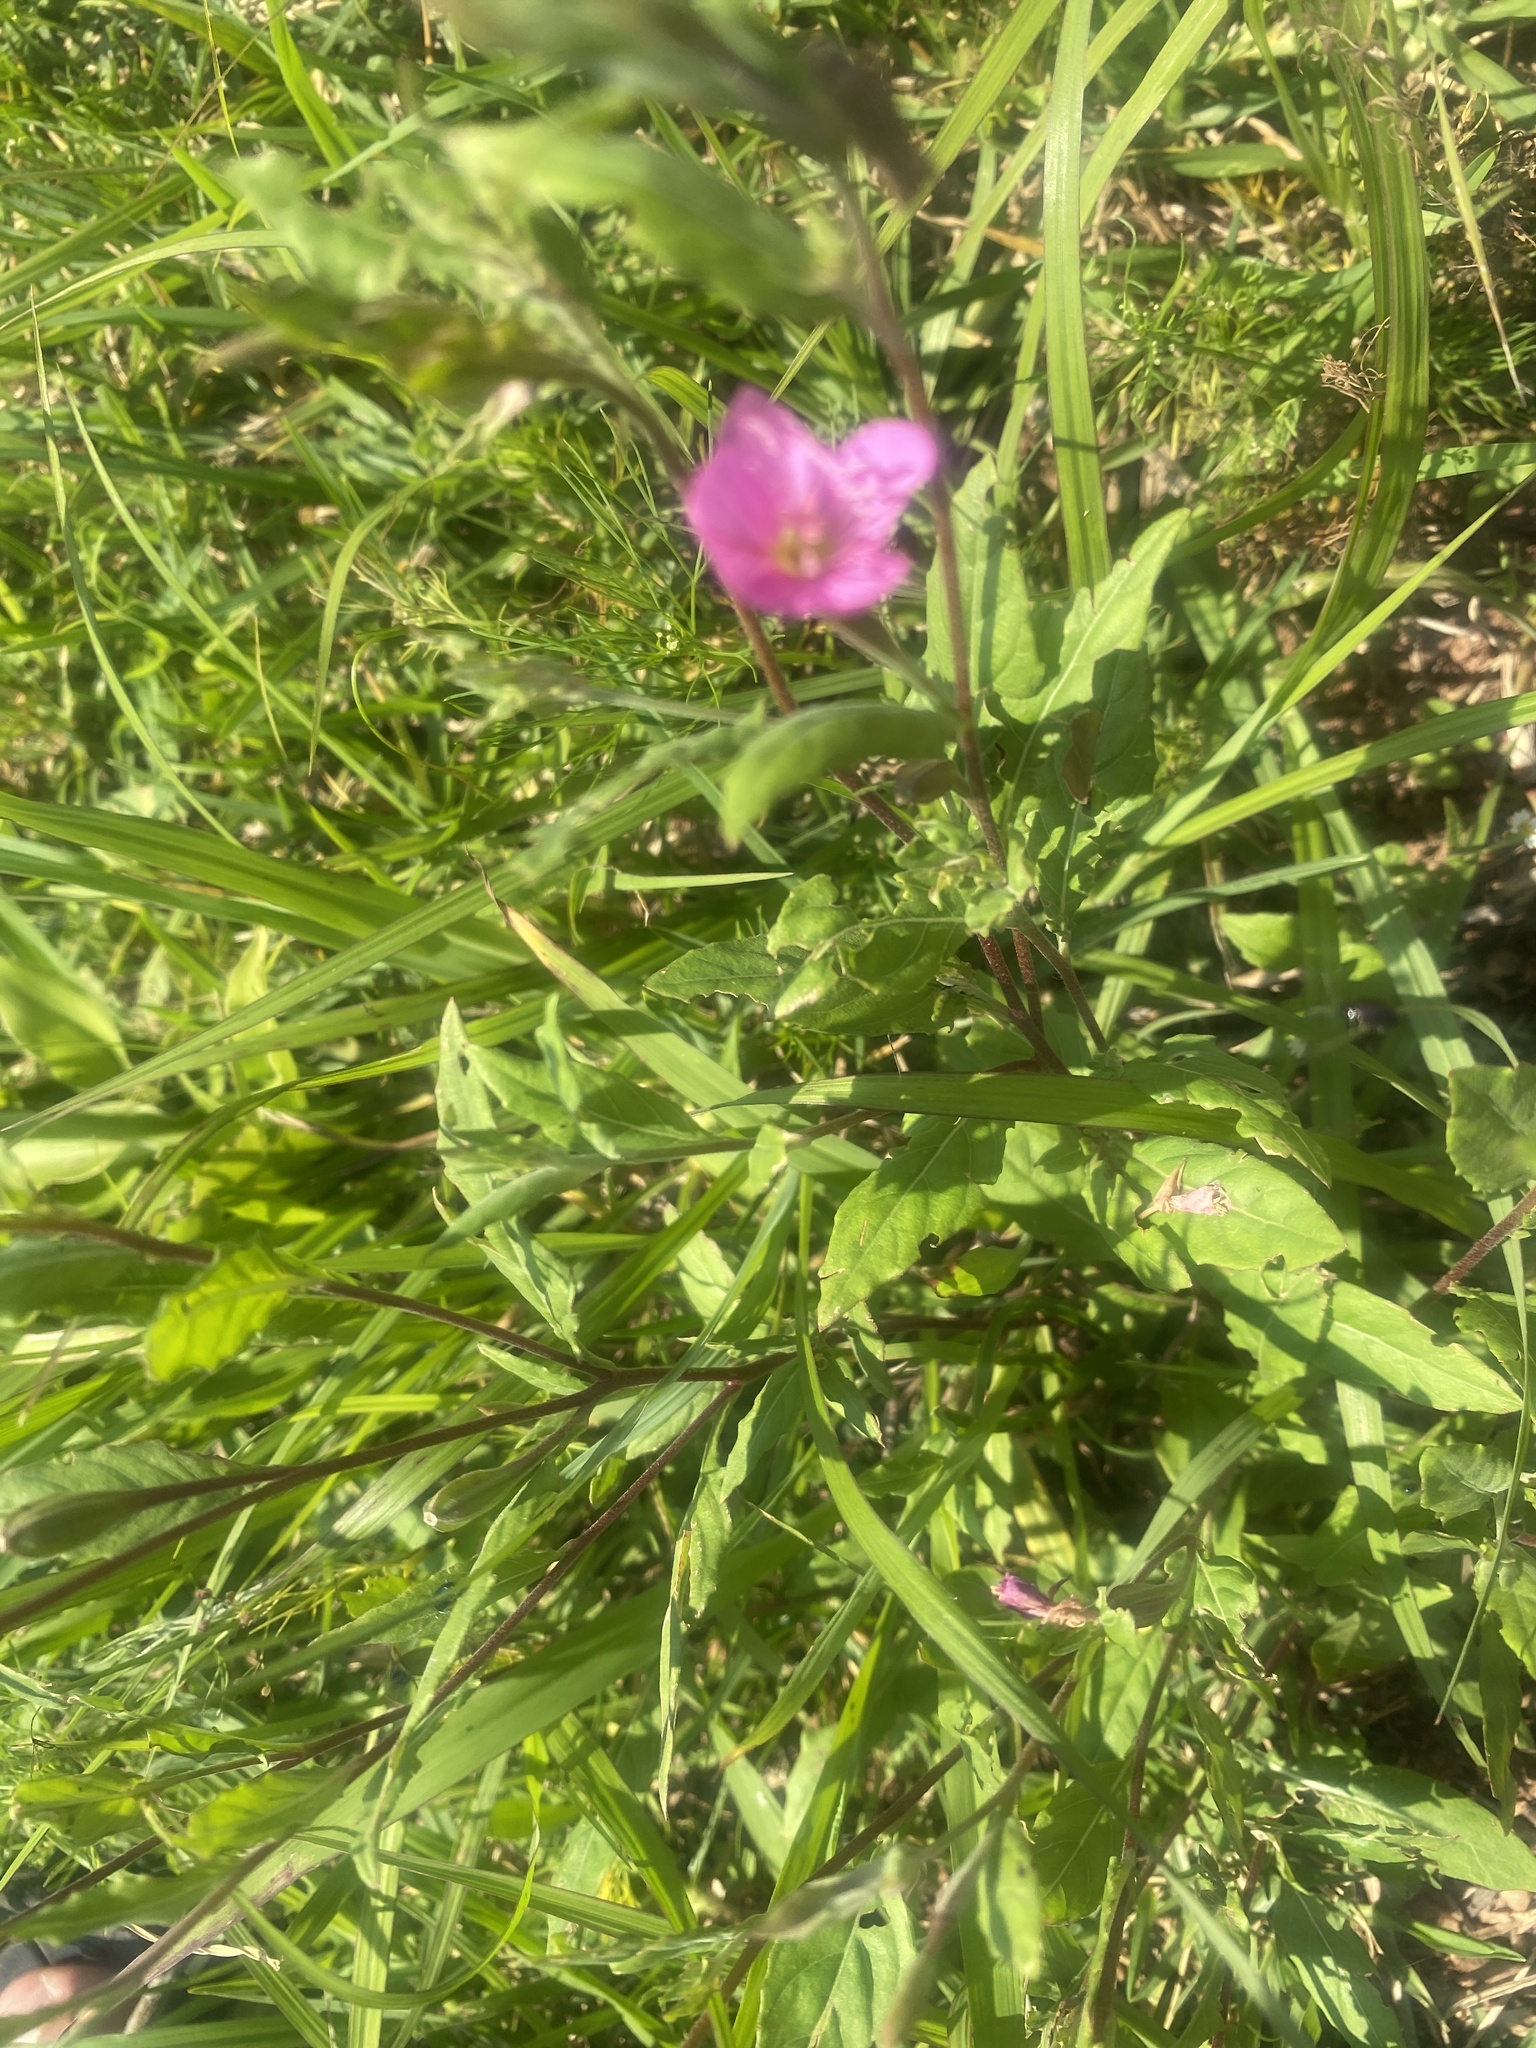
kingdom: Plantae
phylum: Tracheophyta
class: Magnoliopsida
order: Myrtales
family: Onagraceae
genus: Oenothera
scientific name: Oenothera rosea
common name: Rosy evening-primrose
